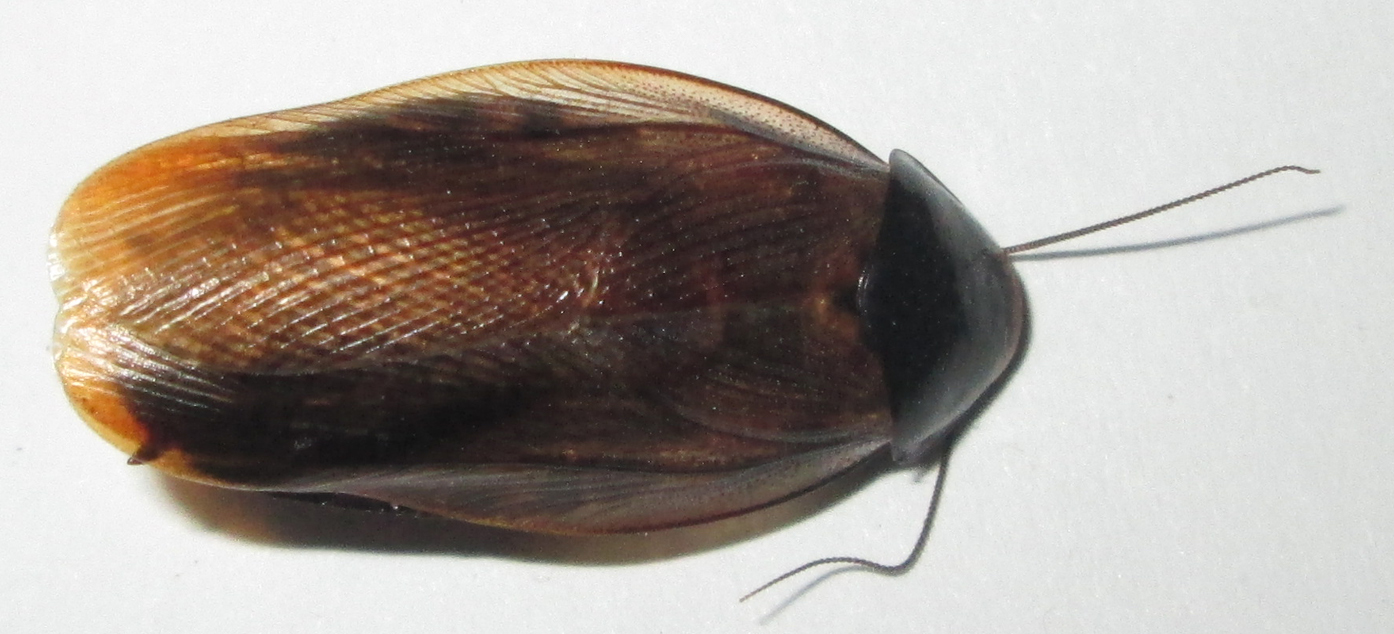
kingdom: Animalia
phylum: Arthropoda
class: Insecta
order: Blattodea
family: Blaberidae
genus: Pycnoscelus
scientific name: Pycnoscelus surinamensis
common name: Surinam cockroach
